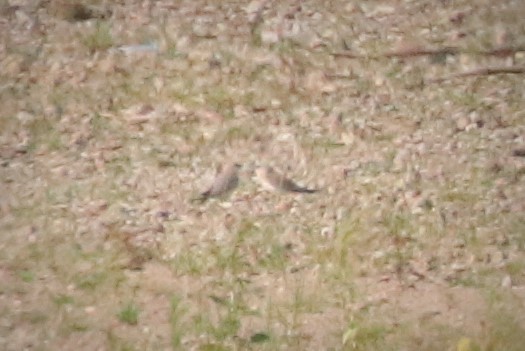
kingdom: Animalia
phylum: Chordata
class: Aves
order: Charadriiformes
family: Glareolidae
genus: Glareola
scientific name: Glareola lactea
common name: Small pratincole
